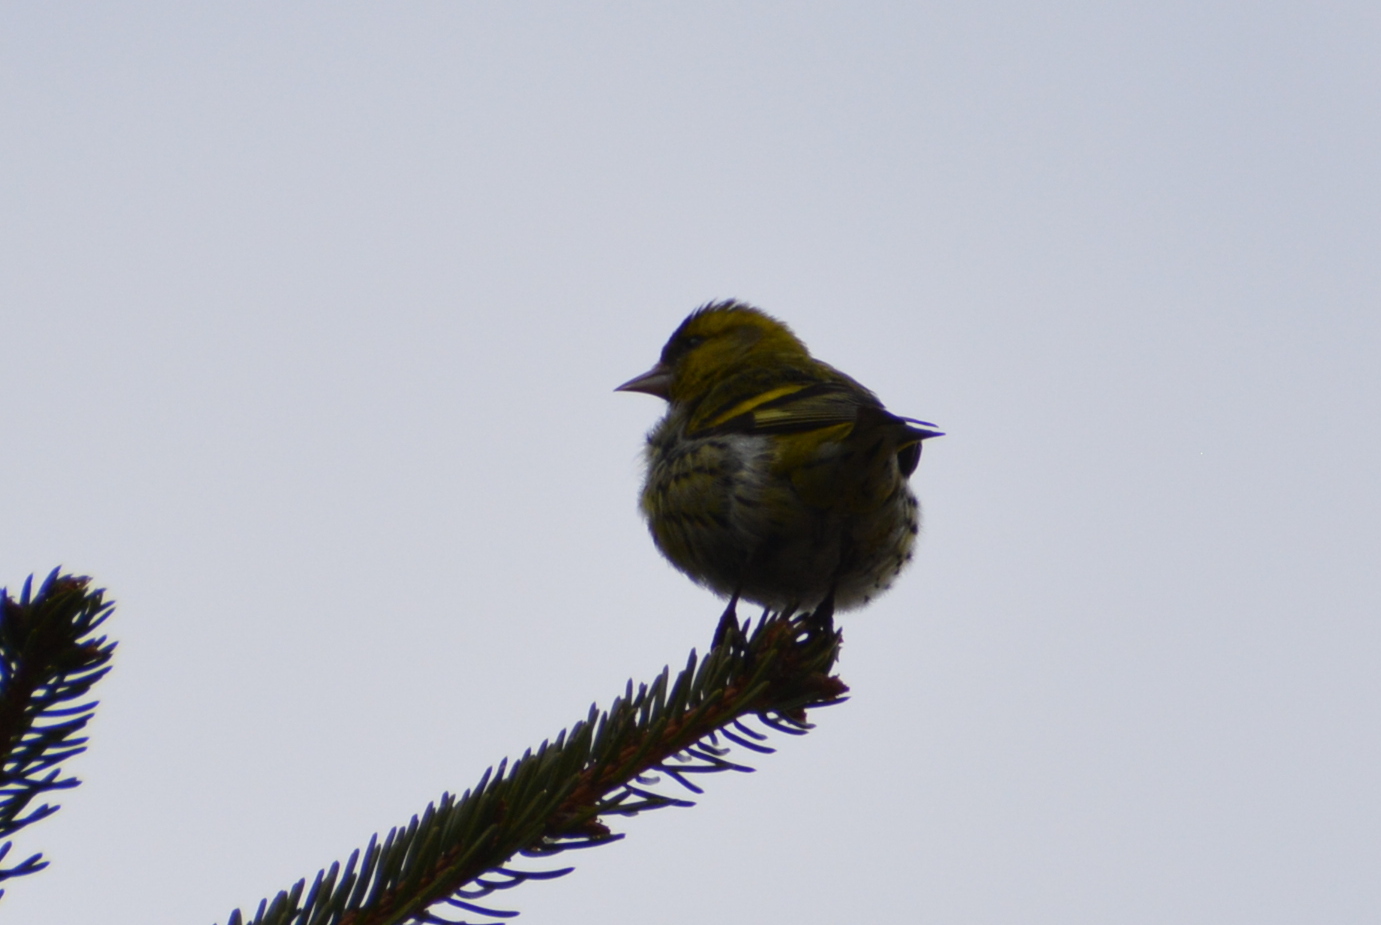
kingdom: Animalia
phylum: Chordata
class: Aves
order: Passeriformes
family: Fringillidae
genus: Spinus
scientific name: Spinus spinus
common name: Eurasian siskin
